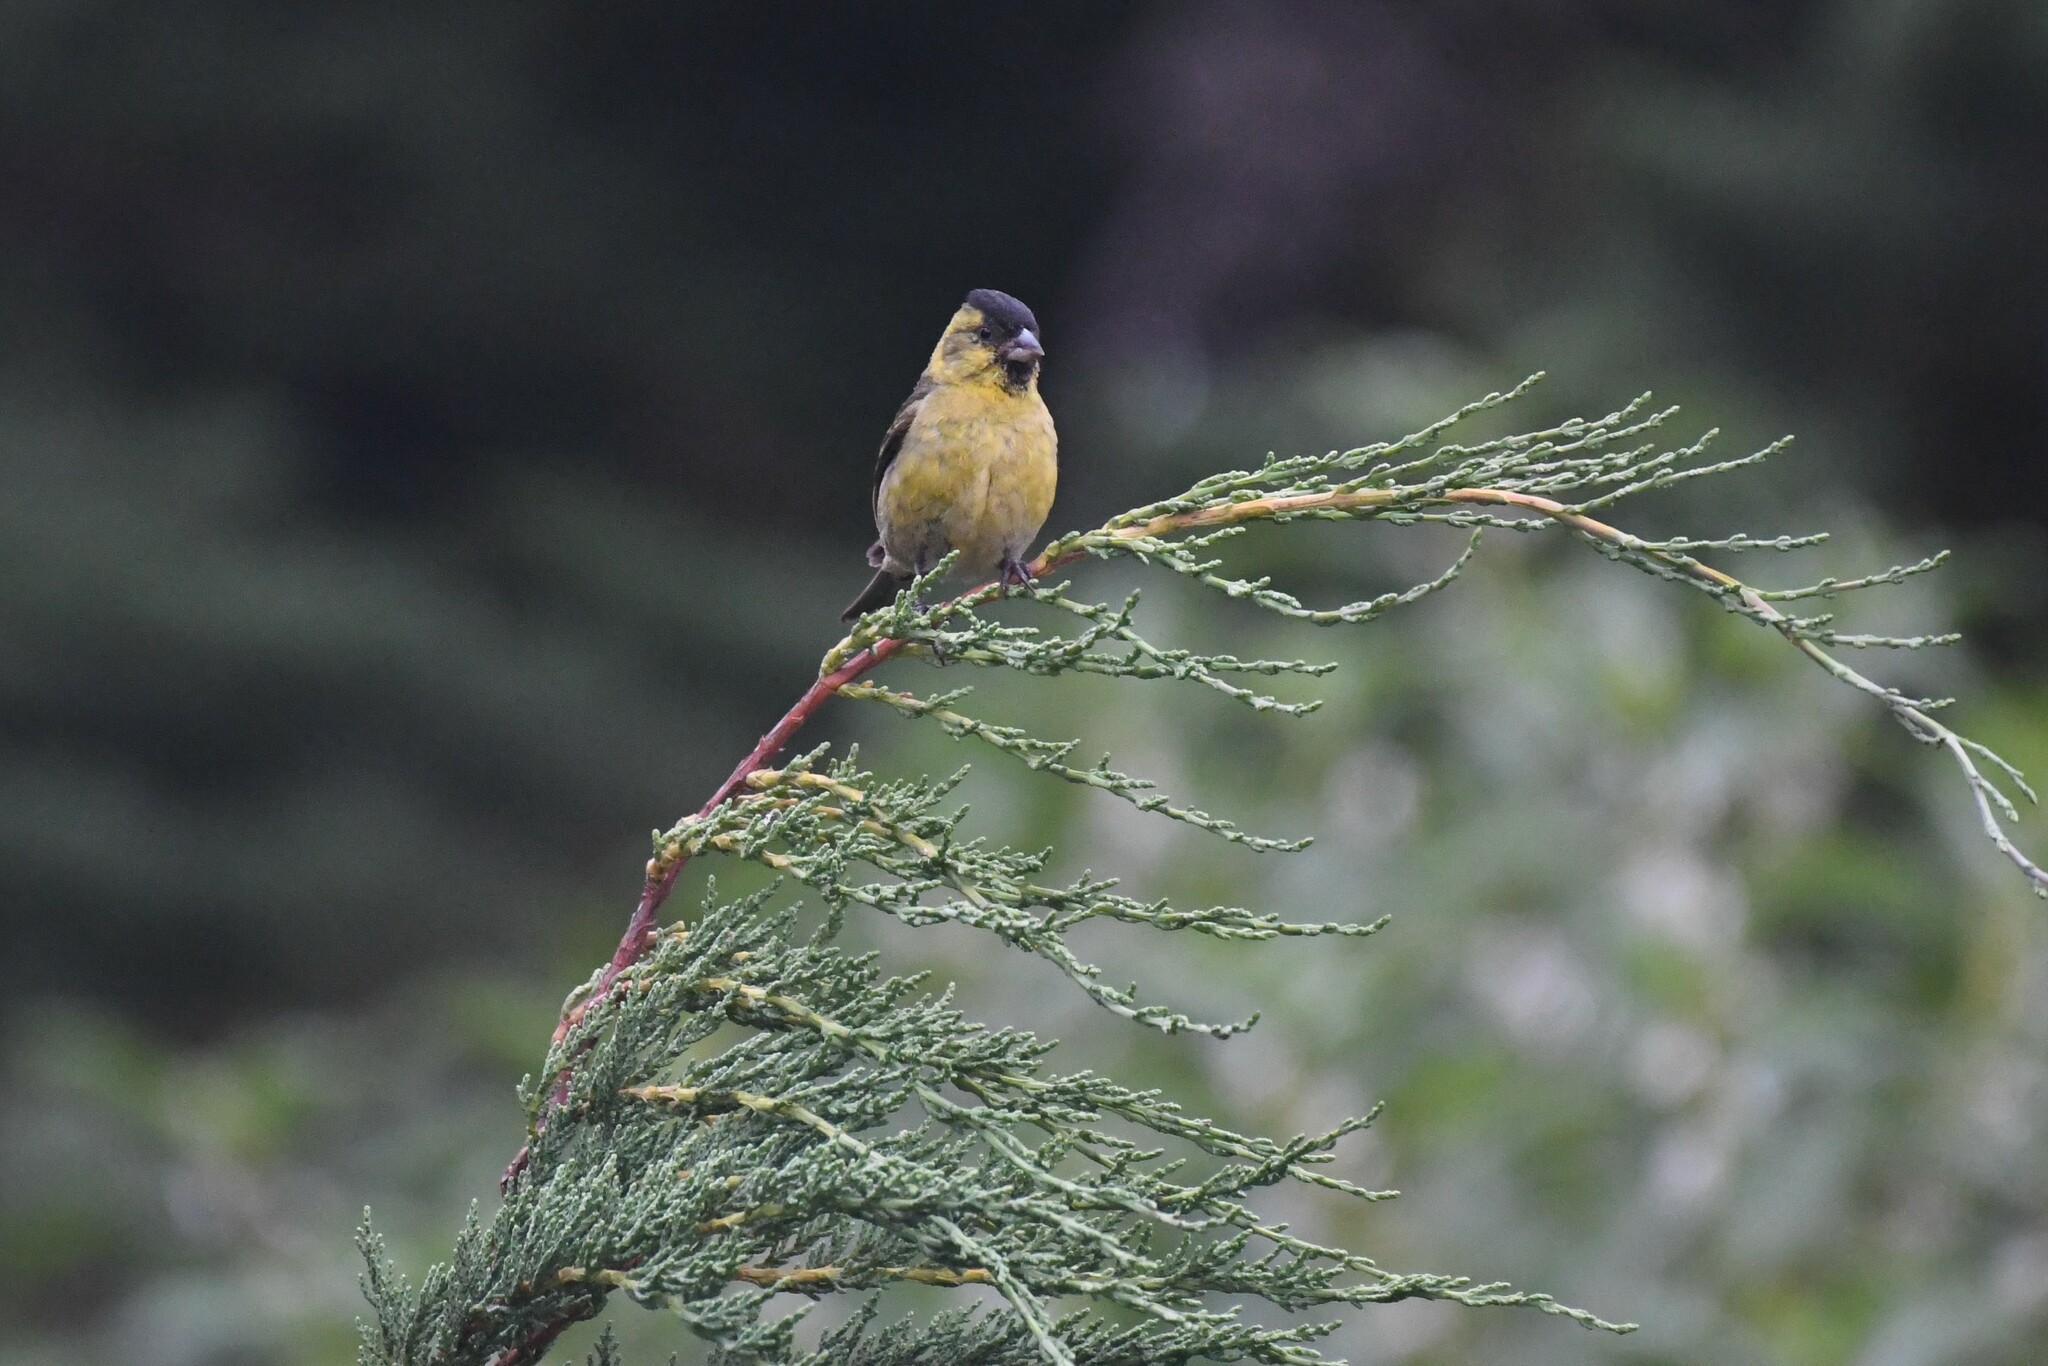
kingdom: Animalia
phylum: Chordata
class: Aves
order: Passeriformes
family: Fringillidae
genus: Spinus
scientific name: Spinus barbatus
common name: Black-chinned siskin
